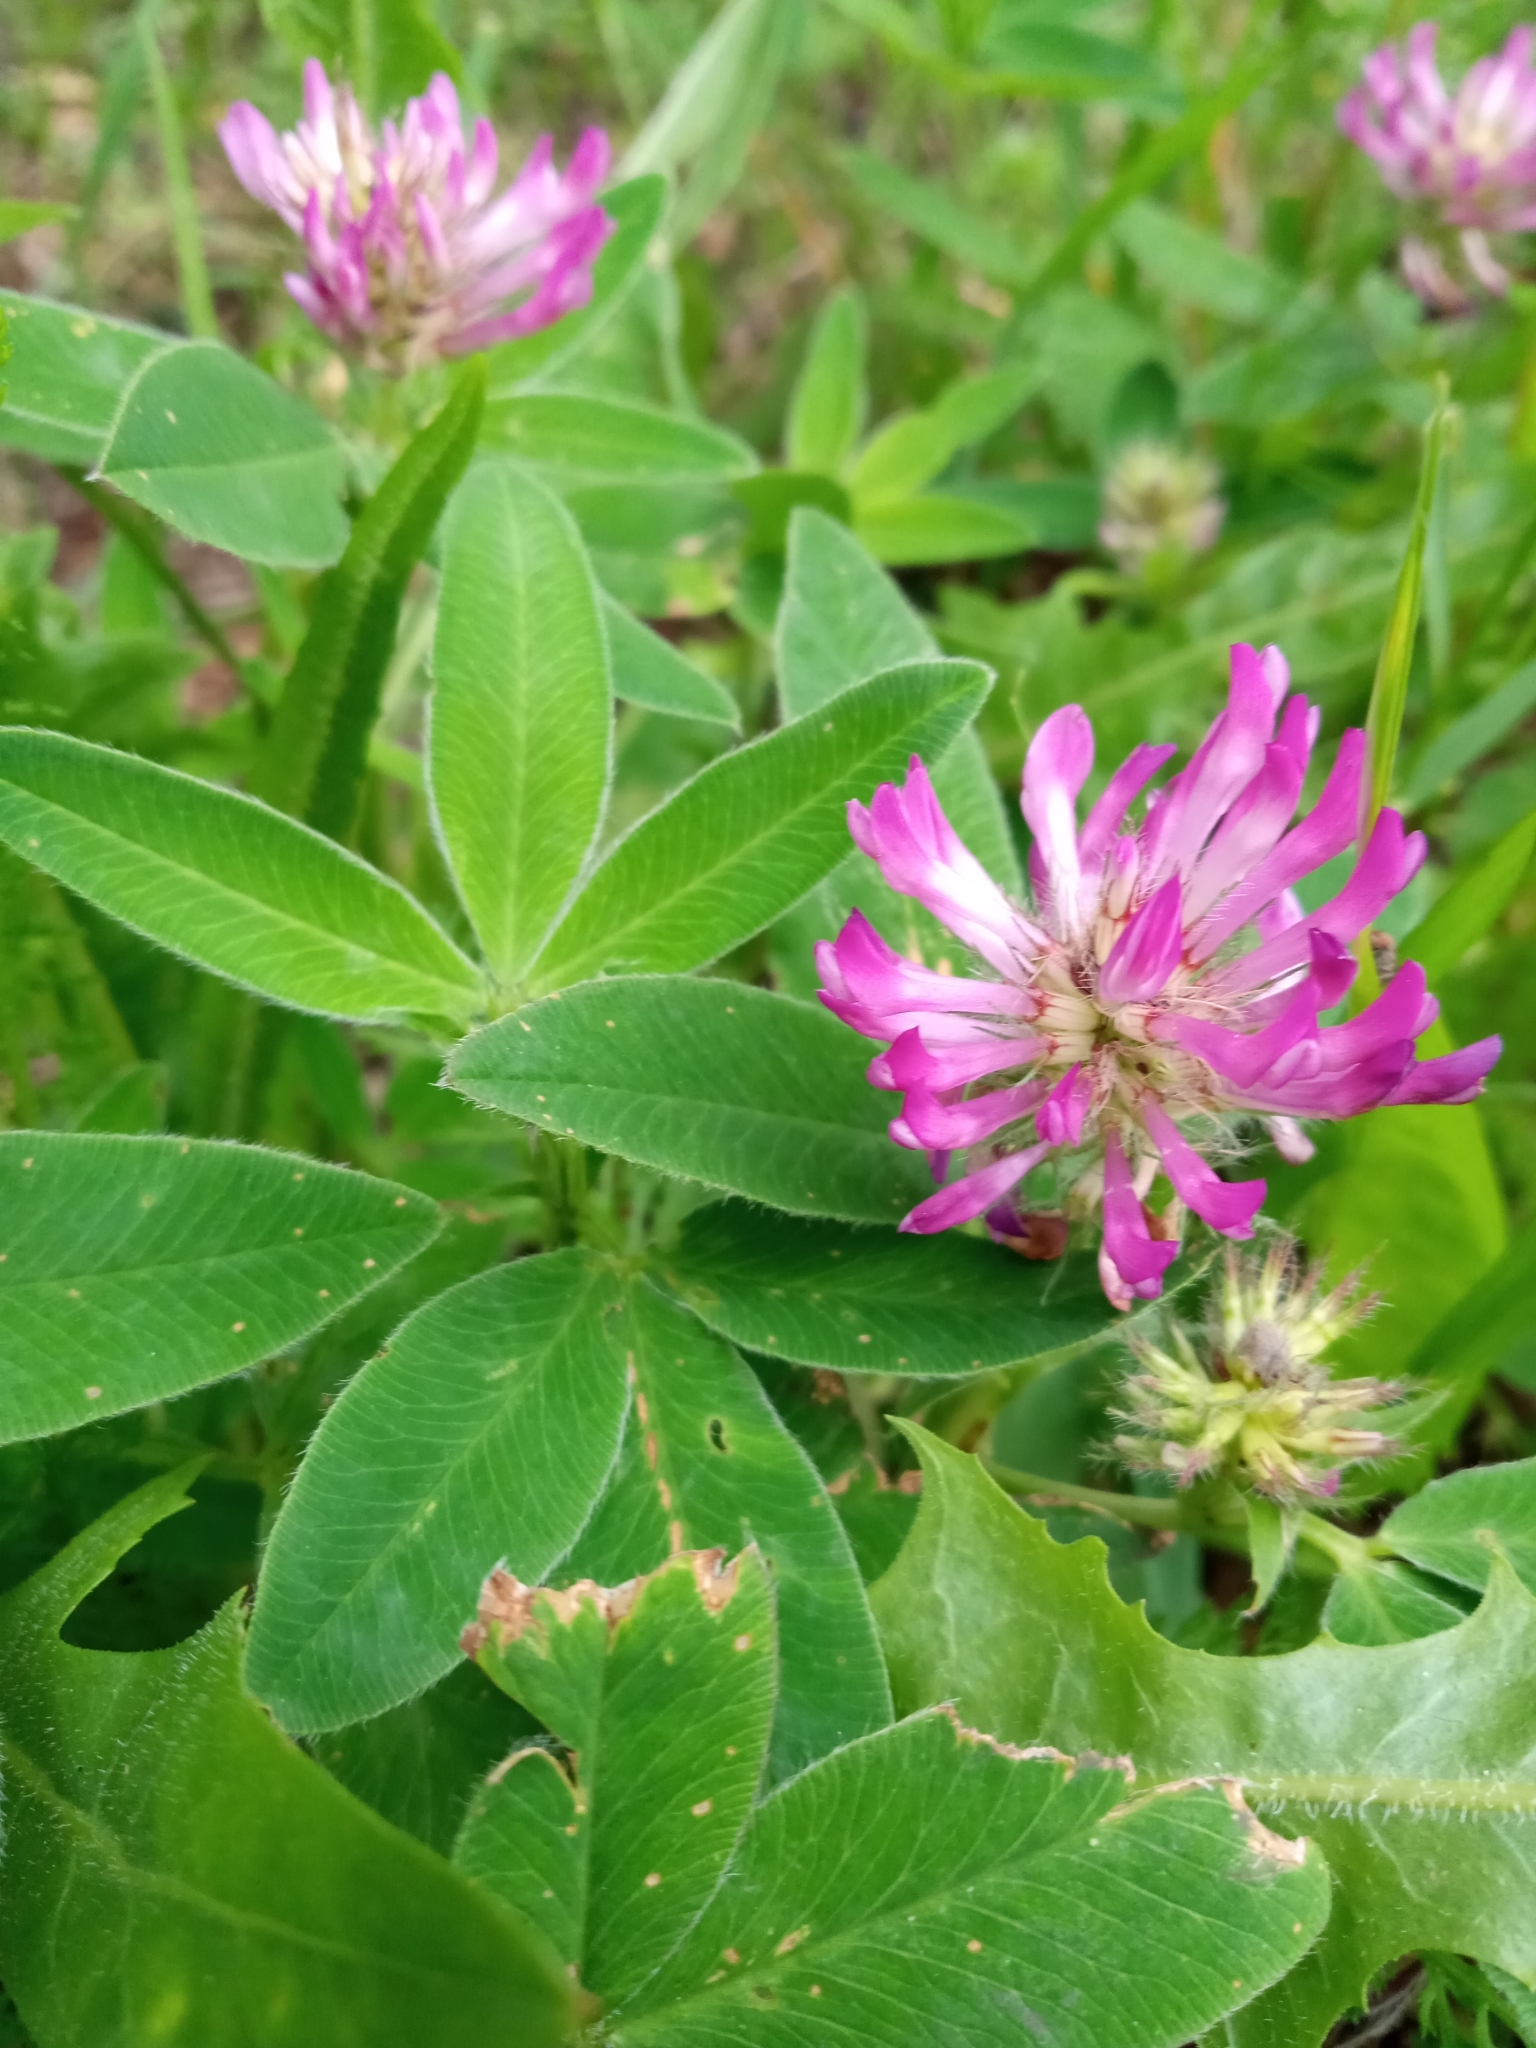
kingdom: Plantae
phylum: Tracheophyta
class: Magnoliopsida
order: Fabales
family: Fabaceae
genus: Trifolium
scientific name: Trifolium medium
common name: Zigzag clover
